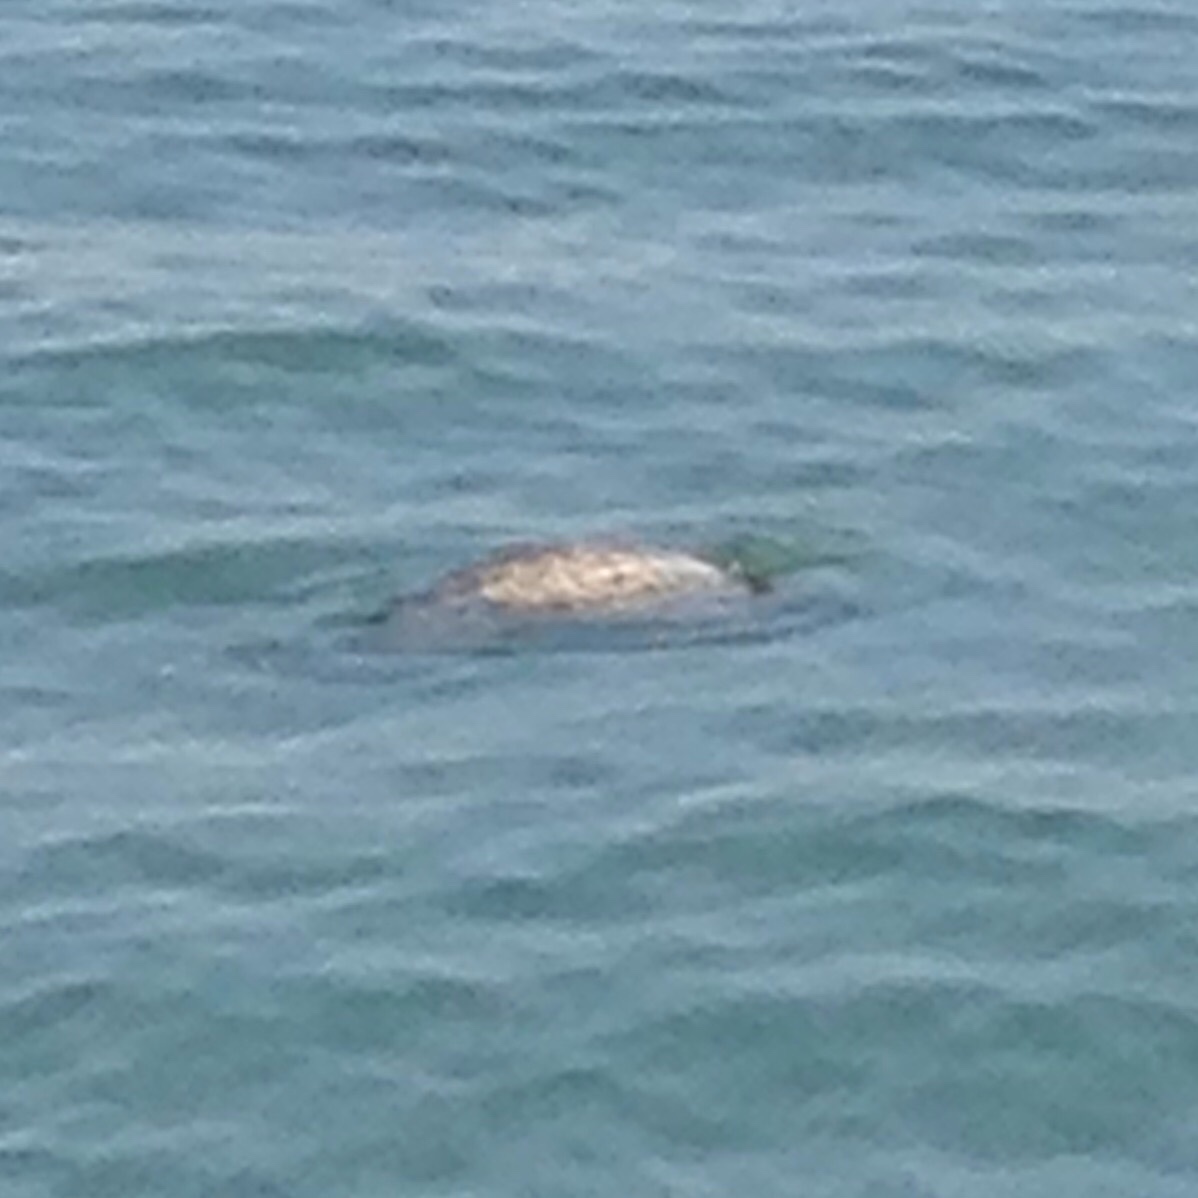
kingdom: Animalia
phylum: Chordata
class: Mammalia
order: Carnivora
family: Phocidae
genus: Phoca
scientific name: Phoca vitulina
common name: Harbor seal
